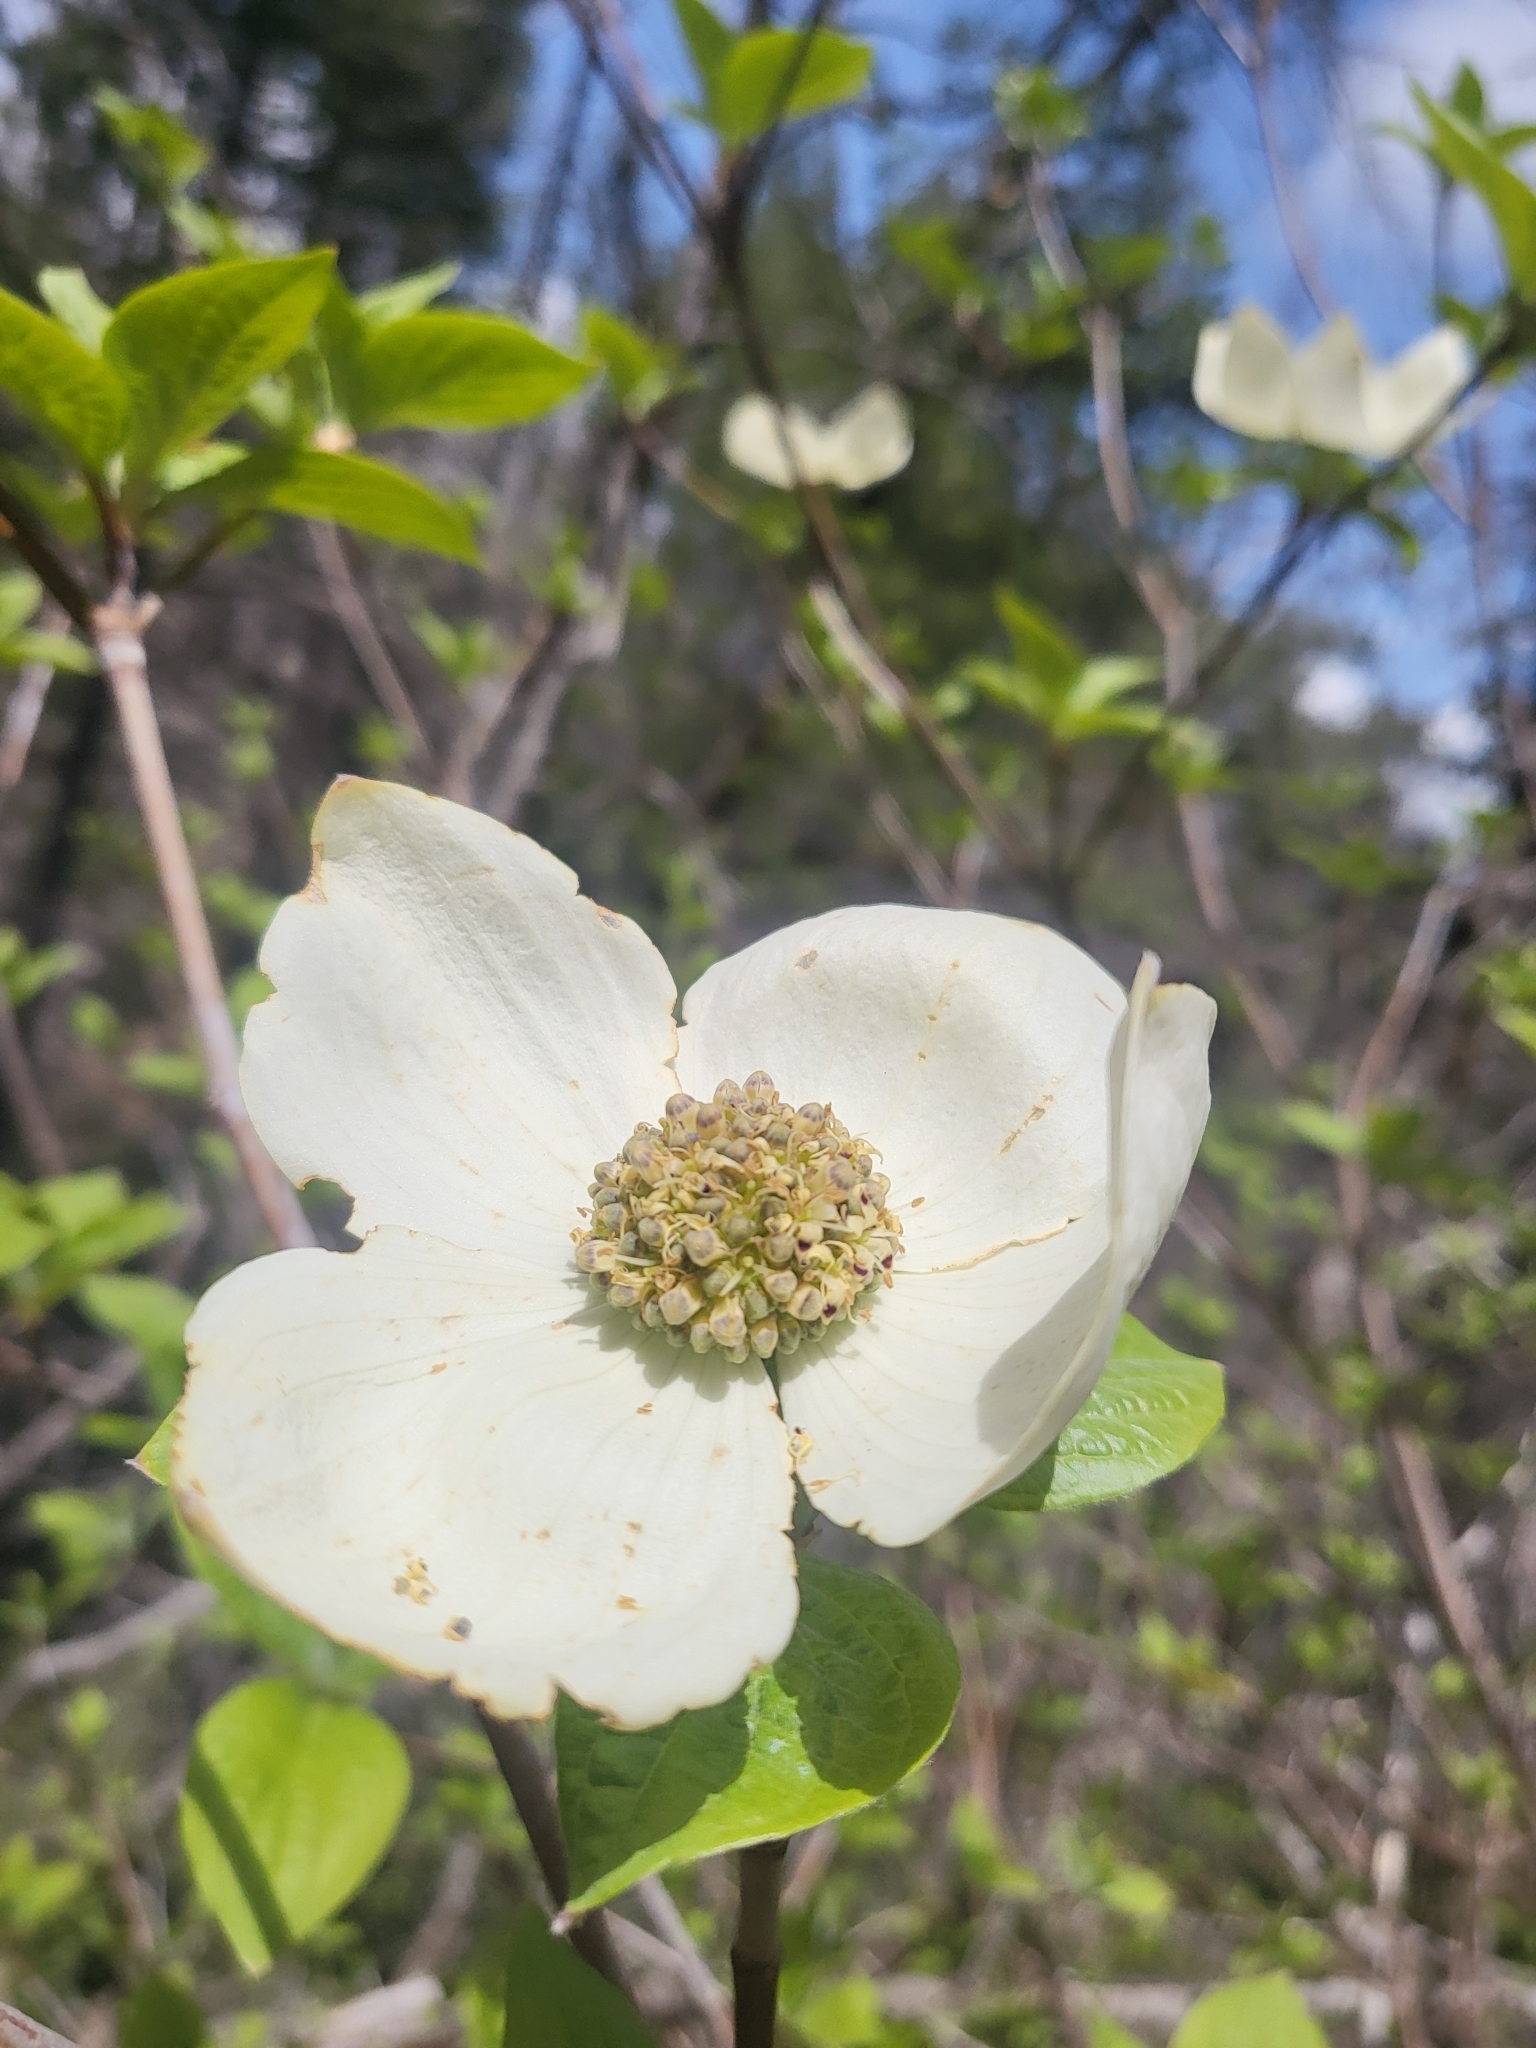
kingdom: Plantae
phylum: Tracheophyta
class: Magnoliopsida
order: Cornales
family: Cornaceae
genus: Cornus
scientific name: Cornus nuttallii
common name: Pacific dogwood
